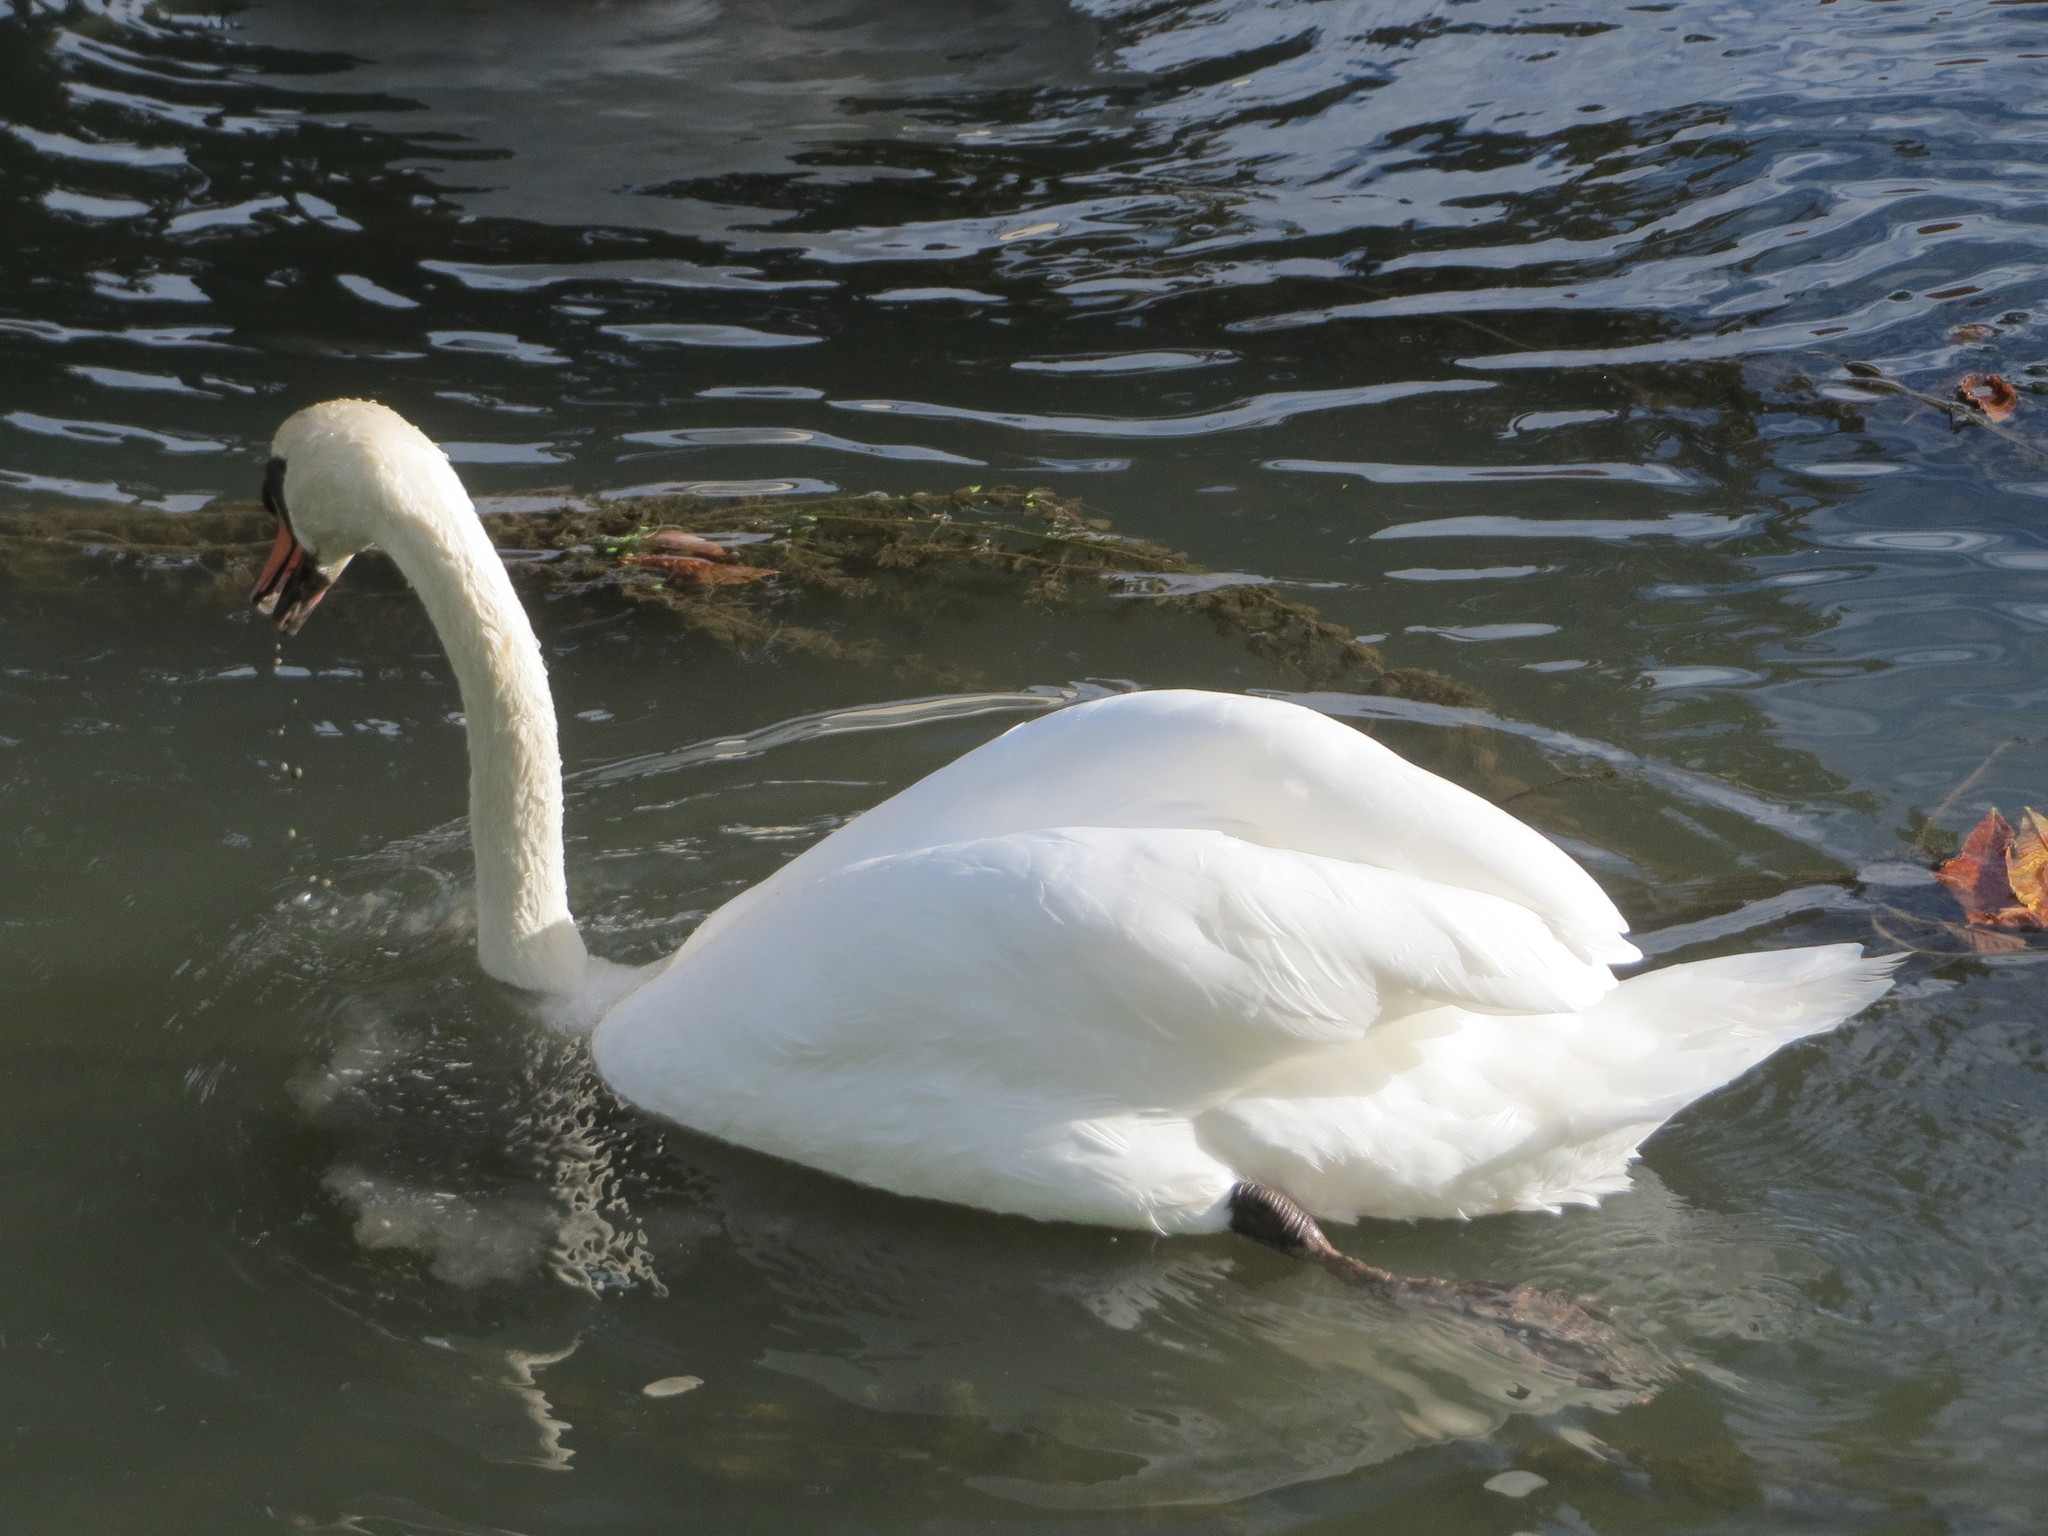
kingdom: Animalia
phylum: Chordata
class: Aves
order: Anseriformes
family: Anatidae
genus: Cygnus
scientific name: Cygnus olor
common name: Mute swan
